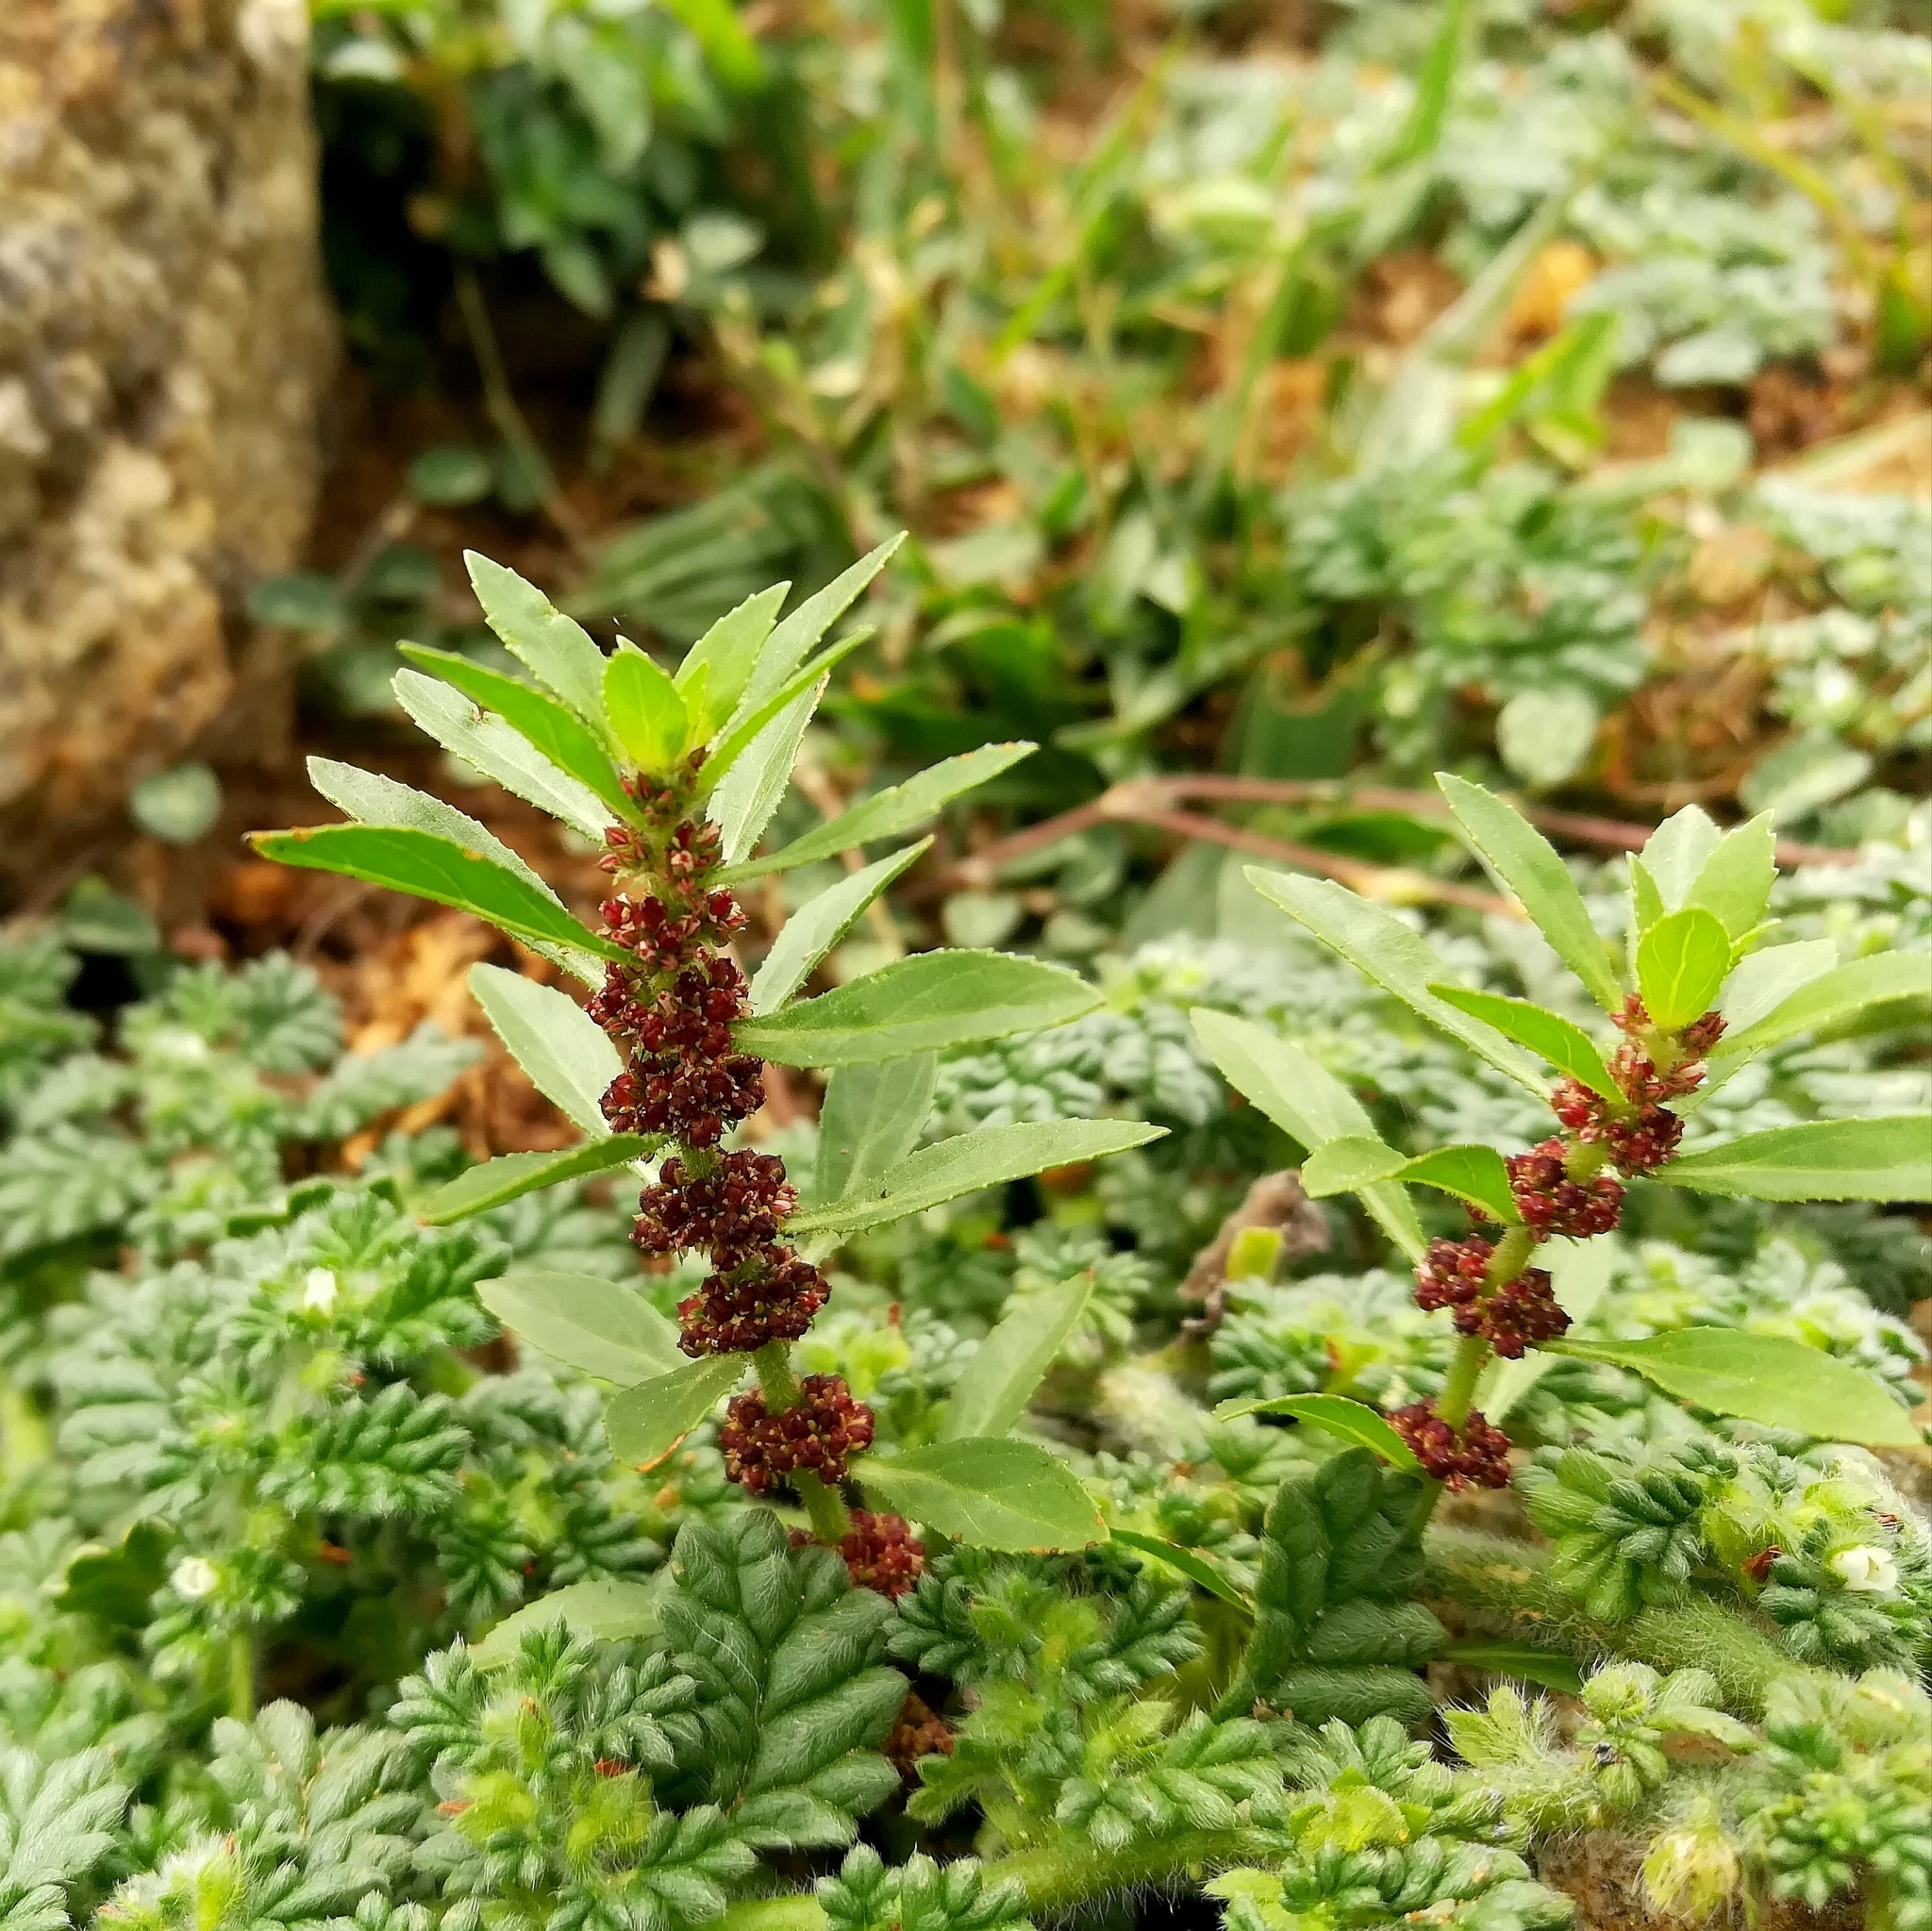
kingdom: Plantae
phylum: Tracheophyta
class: Magnoliopsida
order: Malpighiales
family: Elatinaceae
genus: Bergia
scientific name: Bergia ammannioides
